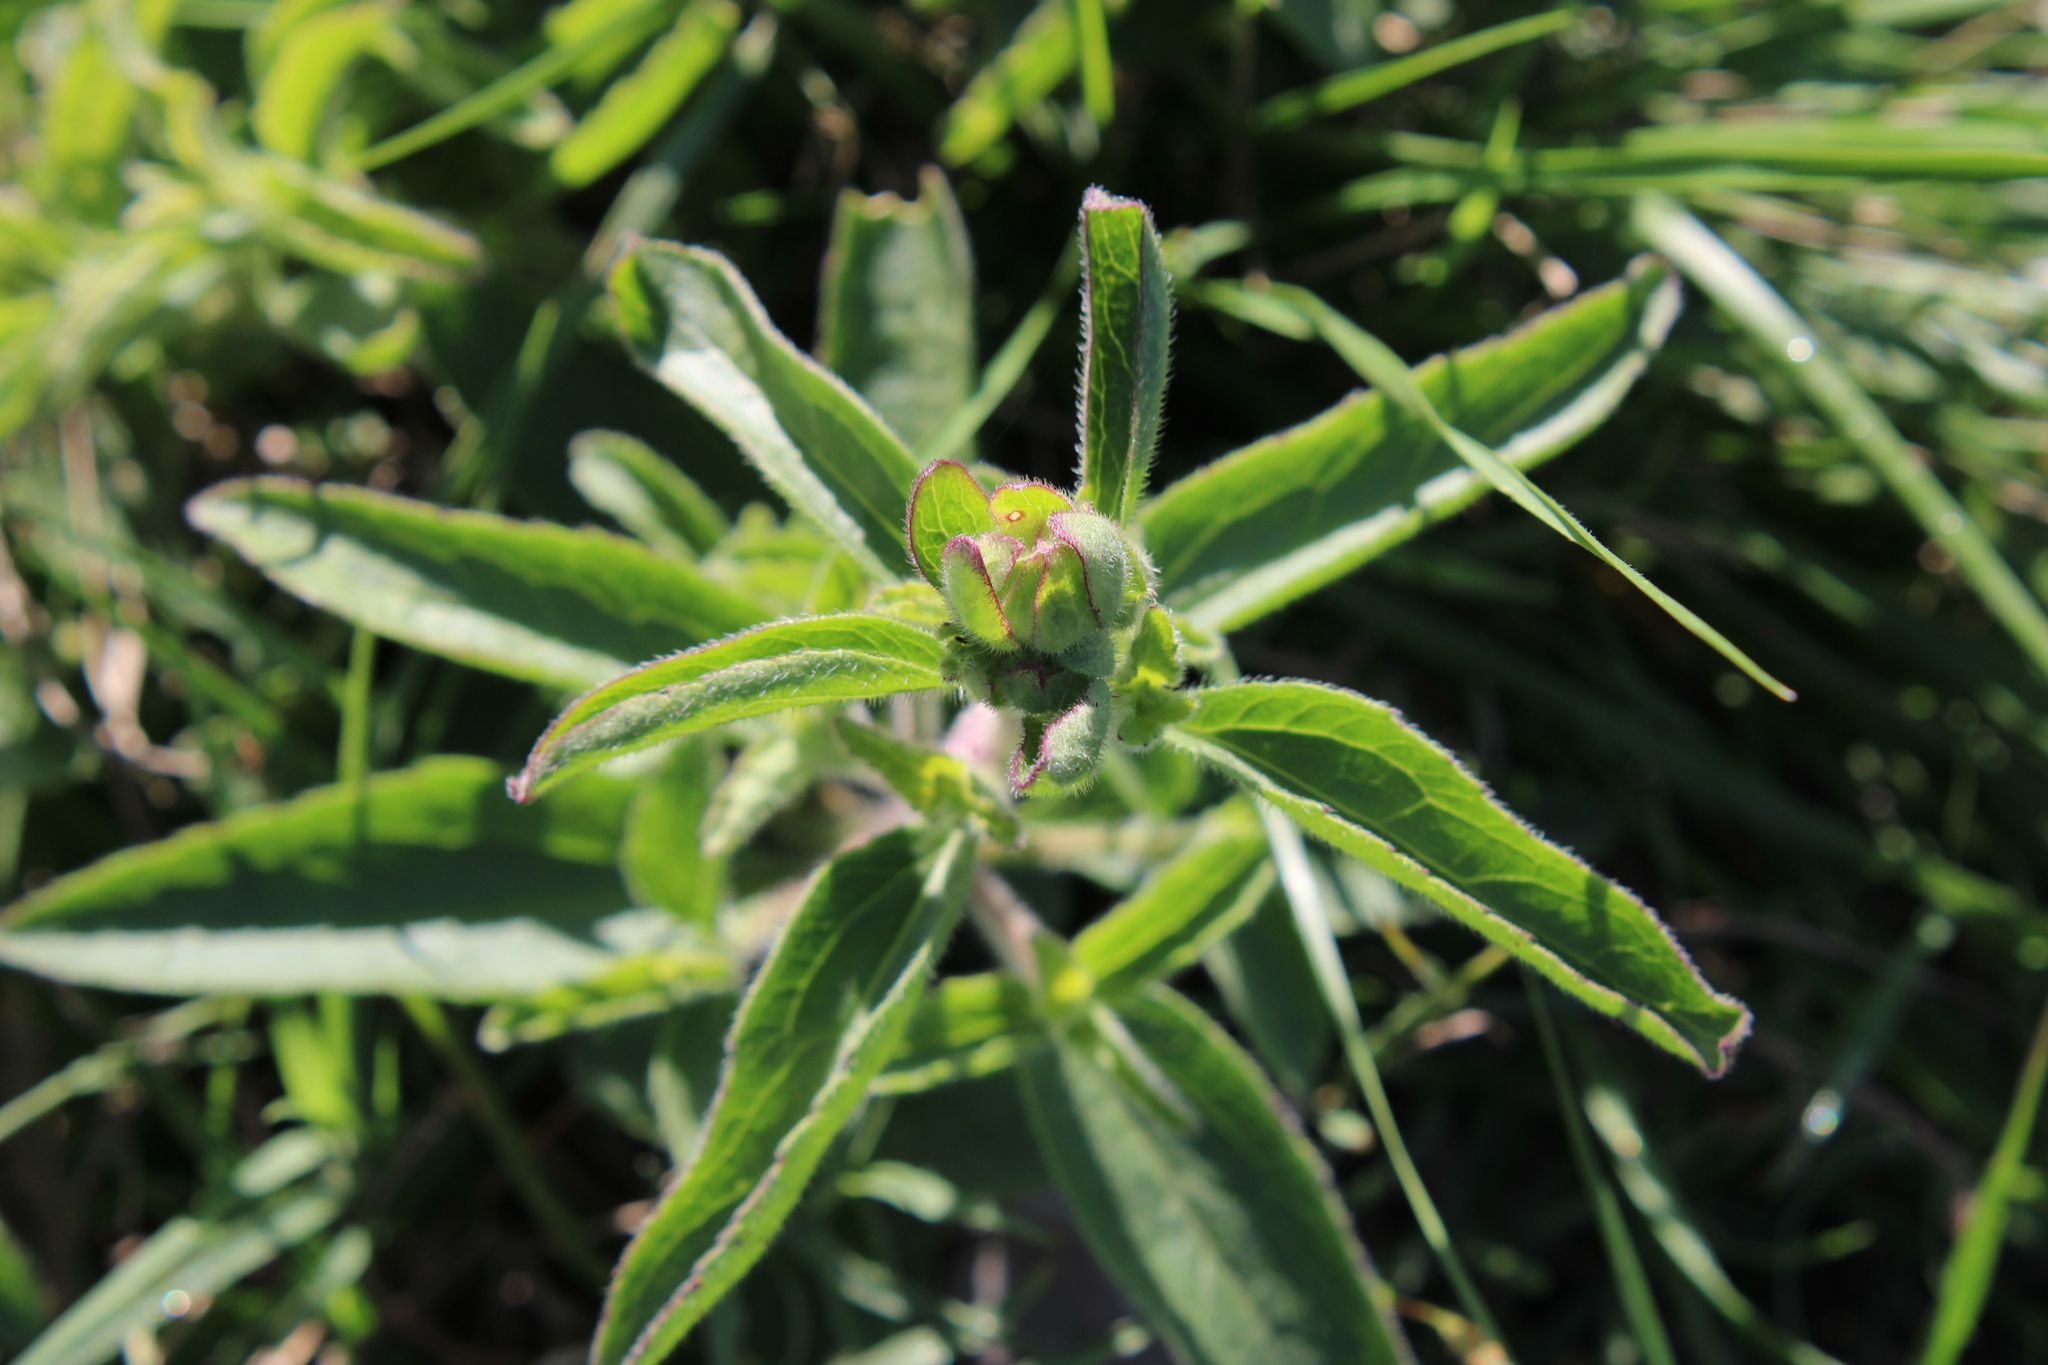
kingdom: Plantae
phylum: Tracheophyta
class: Magnoliopsida
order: Asterales
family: Asteraceae
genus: Campuloclinium
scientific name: Campuloclinium macrocephalum
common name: Pompomweed
